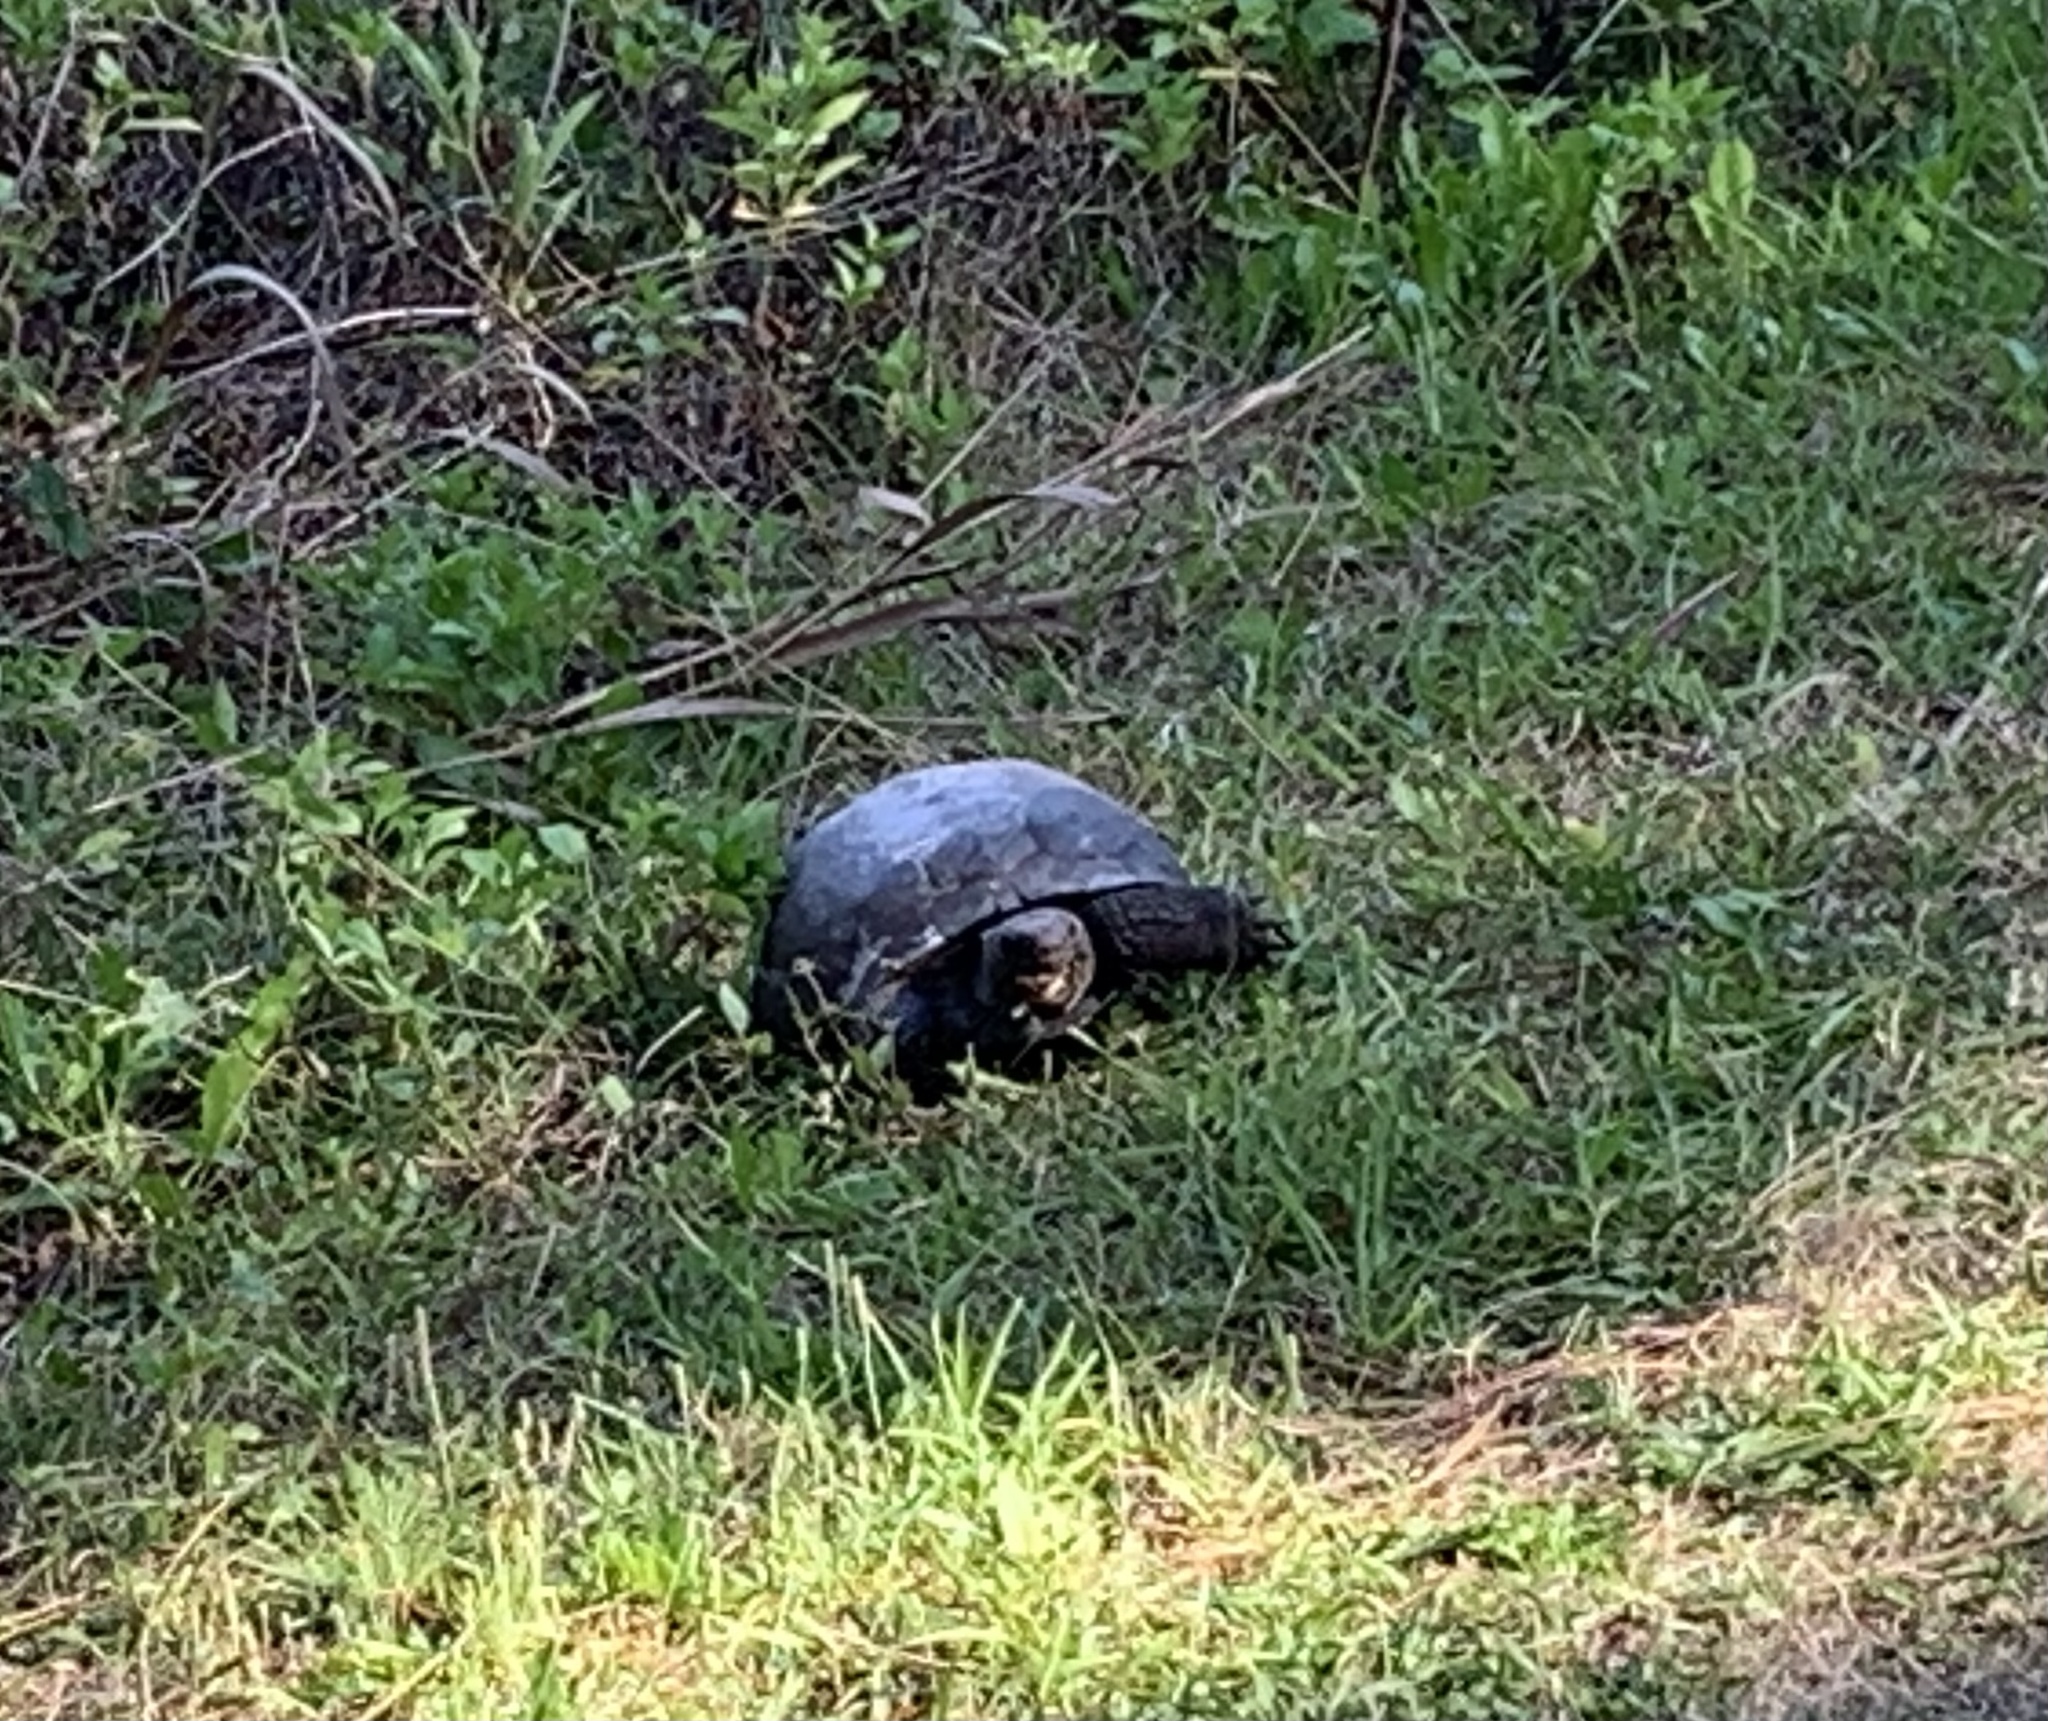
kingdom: Animalia
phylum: Chordata
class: Testudines
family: Testudinidae
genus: Gopherus
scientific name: Gopherus polyphemus
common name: Florida gopher tortoise
